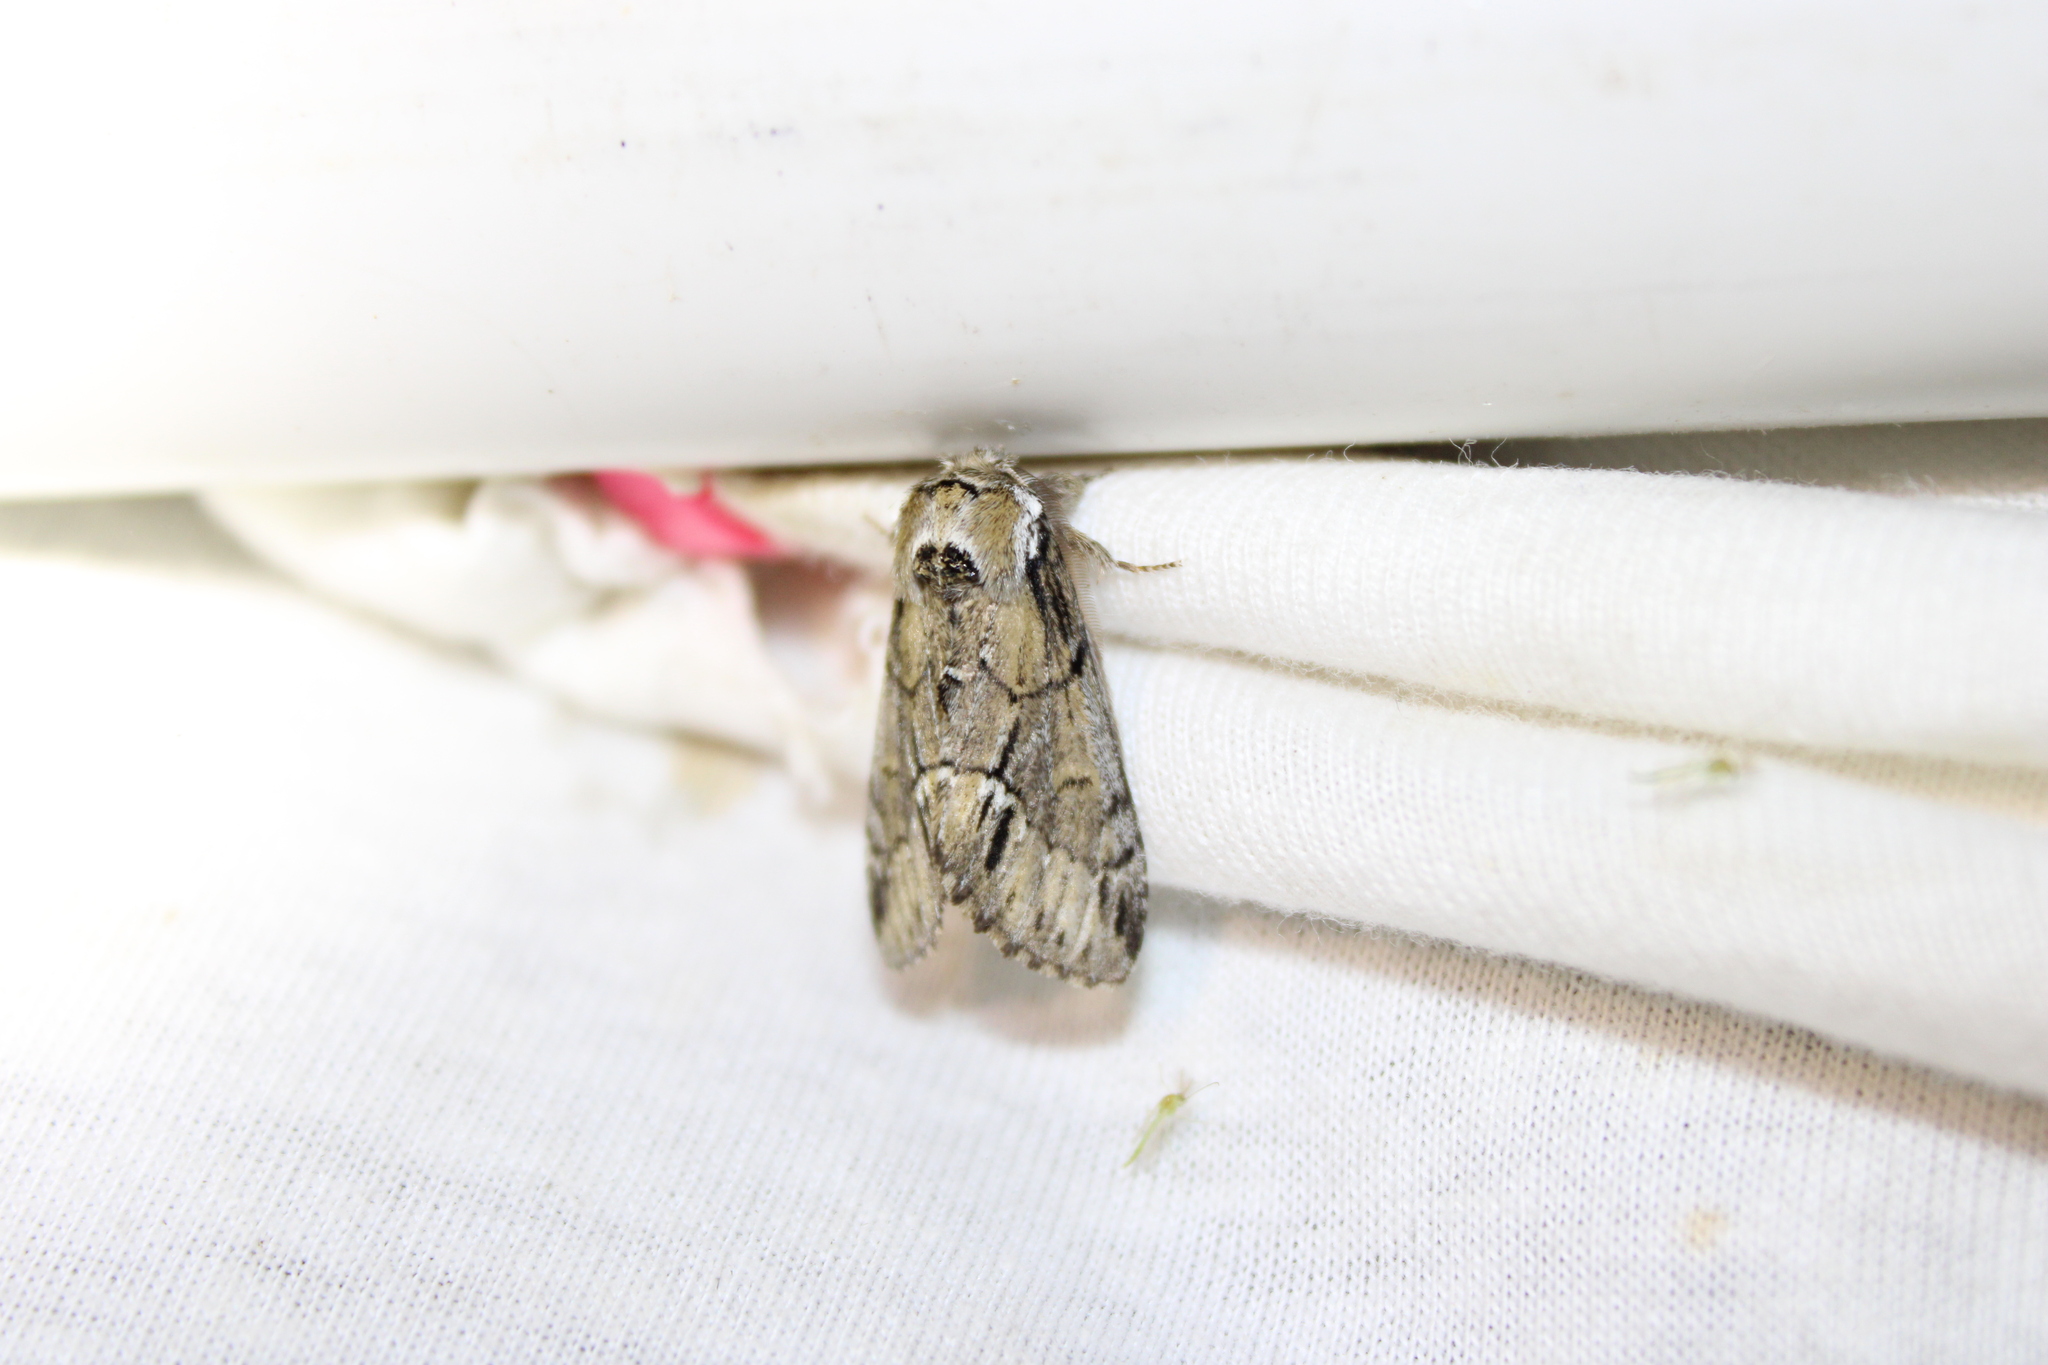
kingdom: Animalia
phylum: Arthropoda
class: Insecta
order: Lepidoptera
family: Notodontidae
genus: Paraeschra
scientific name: Paraeschra georgica
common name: Georgian prominent
